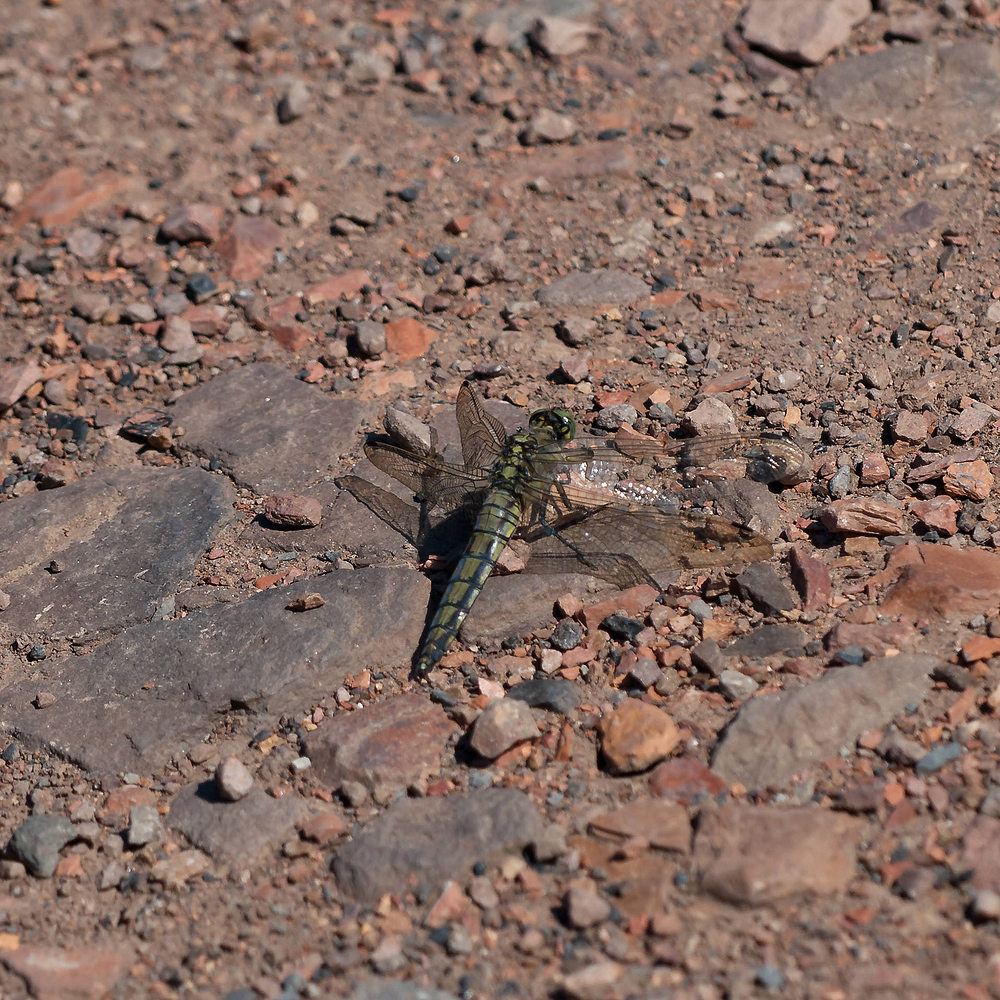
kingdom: Animalia
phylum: Arthropoda
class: Insecta
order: Odonata
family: Libellulidae
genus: Orthetrum
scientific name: Orthetrum cancellatum
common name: Black-tailed skimmer
